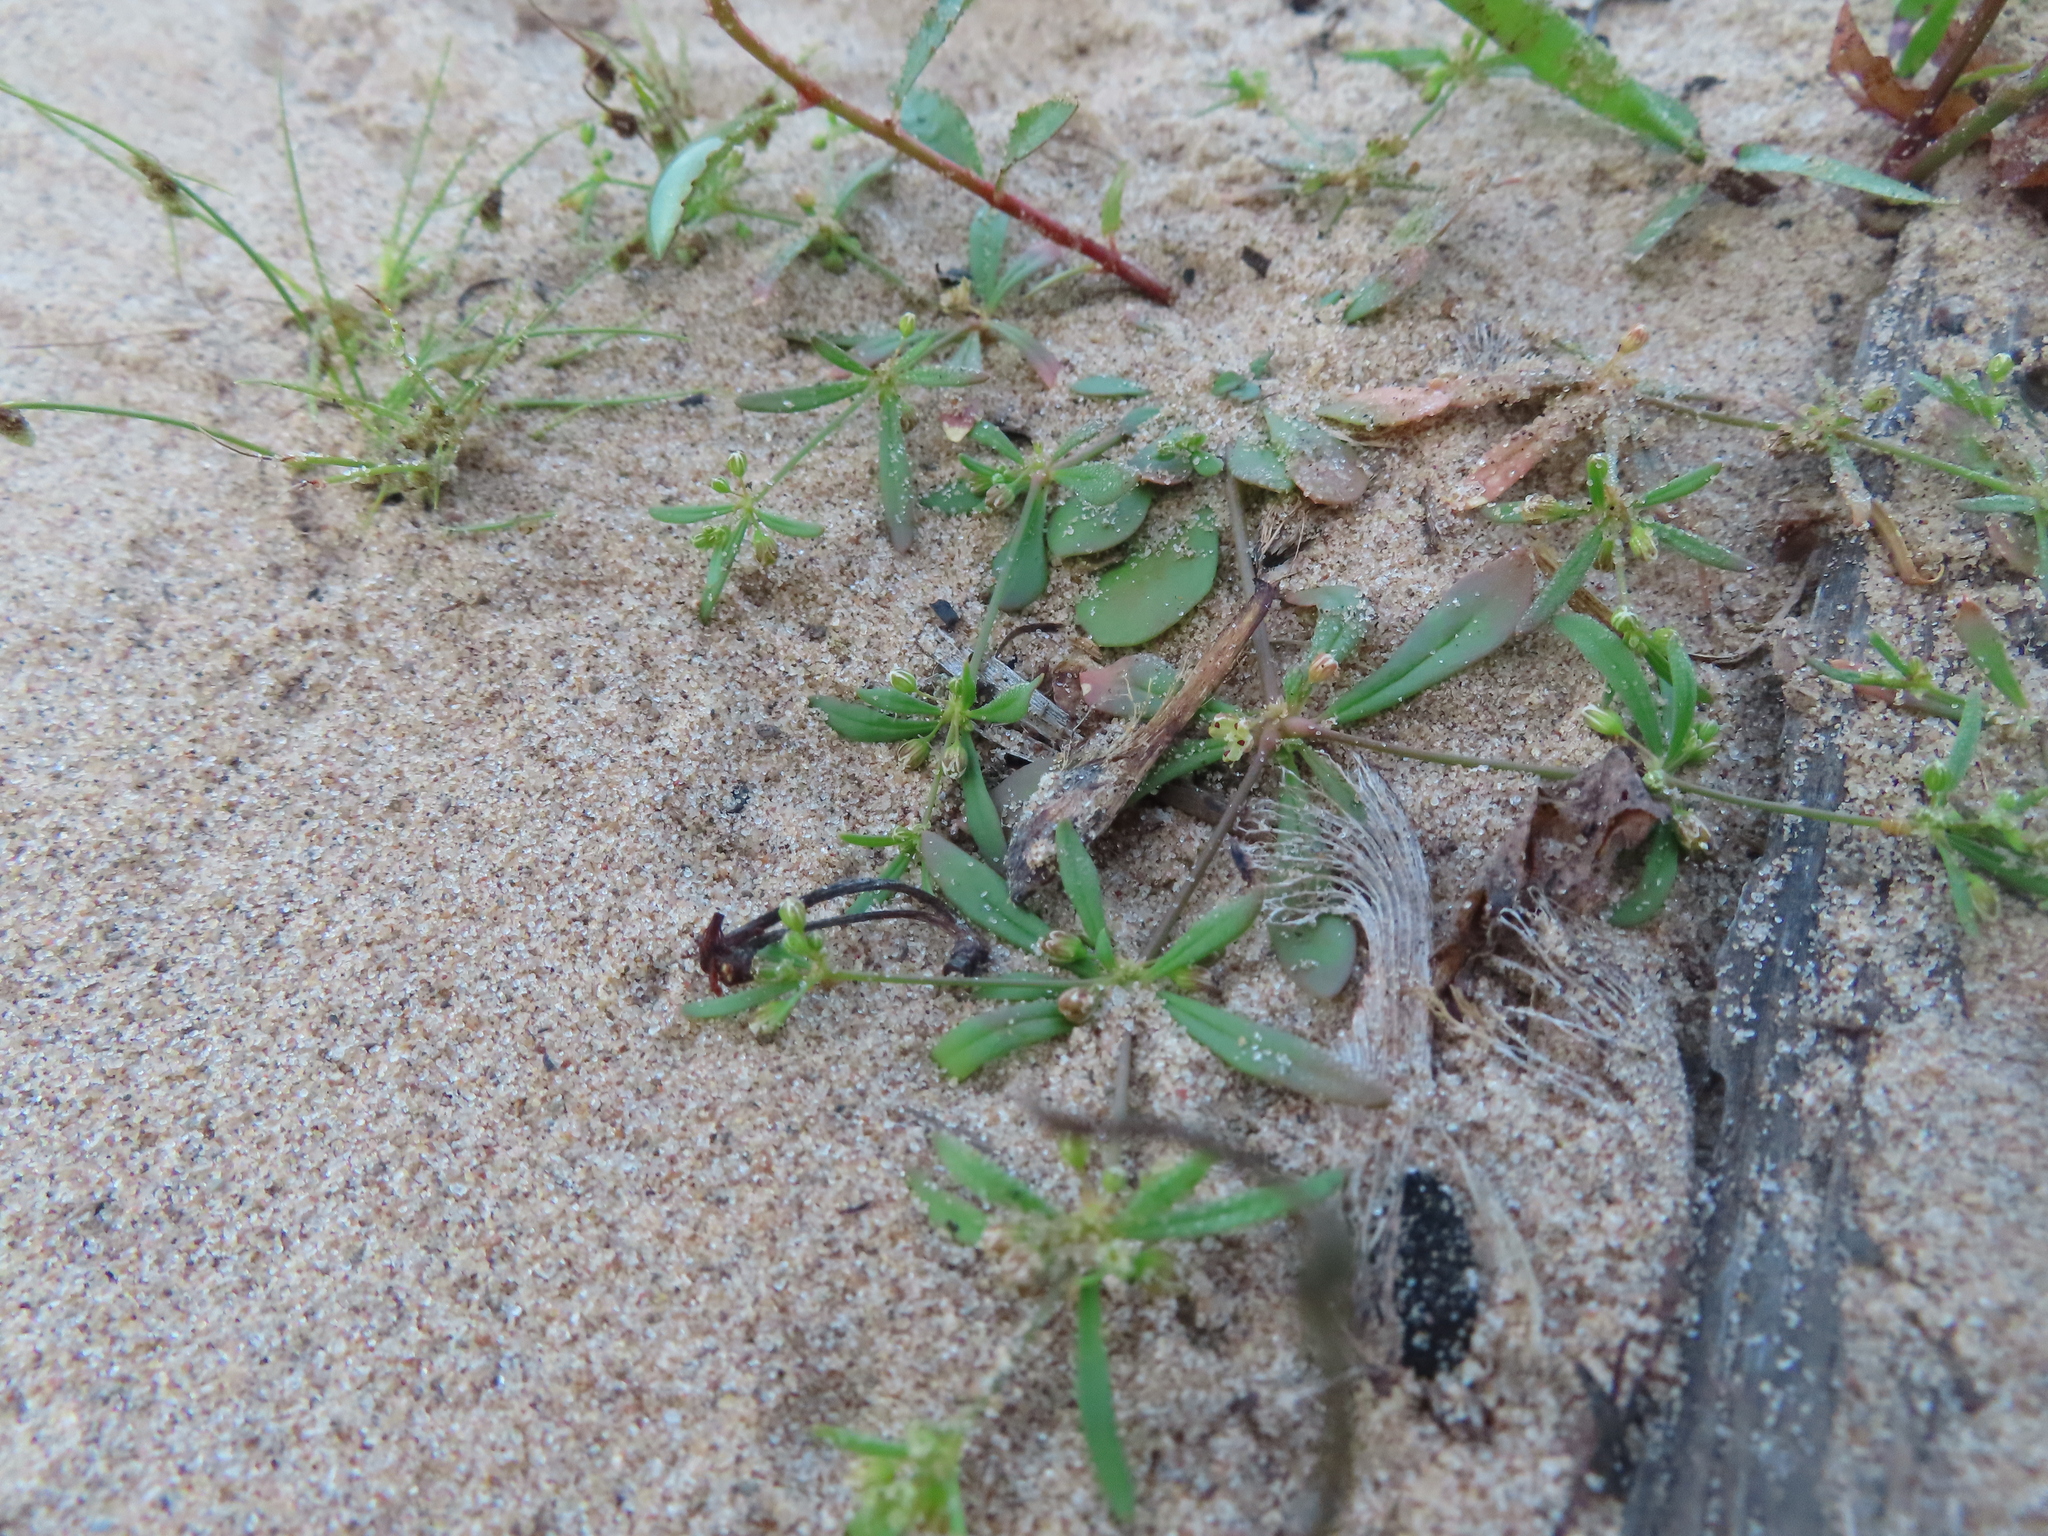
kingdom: Plantae
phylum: Tracheophyta
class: Magnoliopsida
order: Caryophyllales
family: Molluginaceae
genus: Mollugo
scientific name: Mollugo verticillata
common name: Green carpetweed
